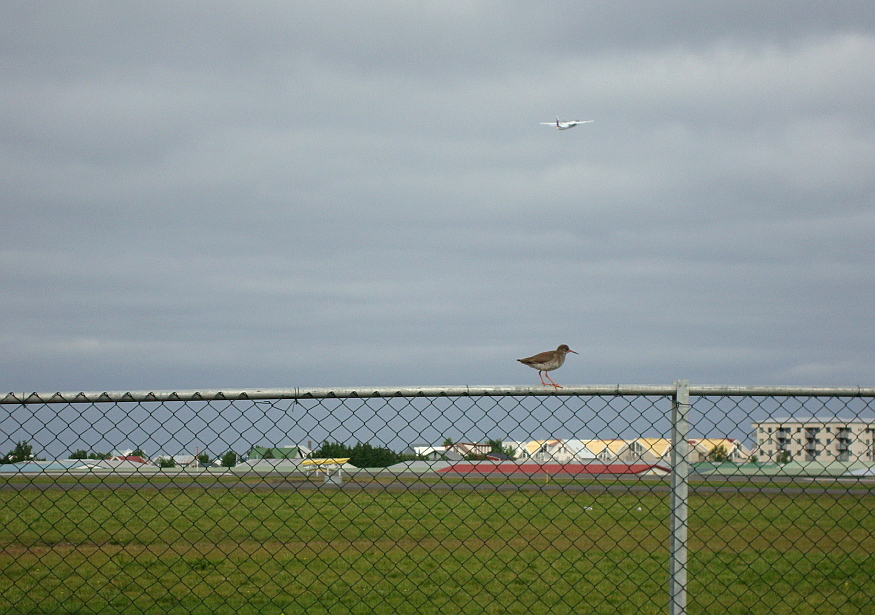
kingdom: Animalia
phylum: Chordata
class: Aves
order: Charadriiformes
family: Scolopacidae
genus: Tringa
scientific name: Tringa totanus
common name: Common redshank
